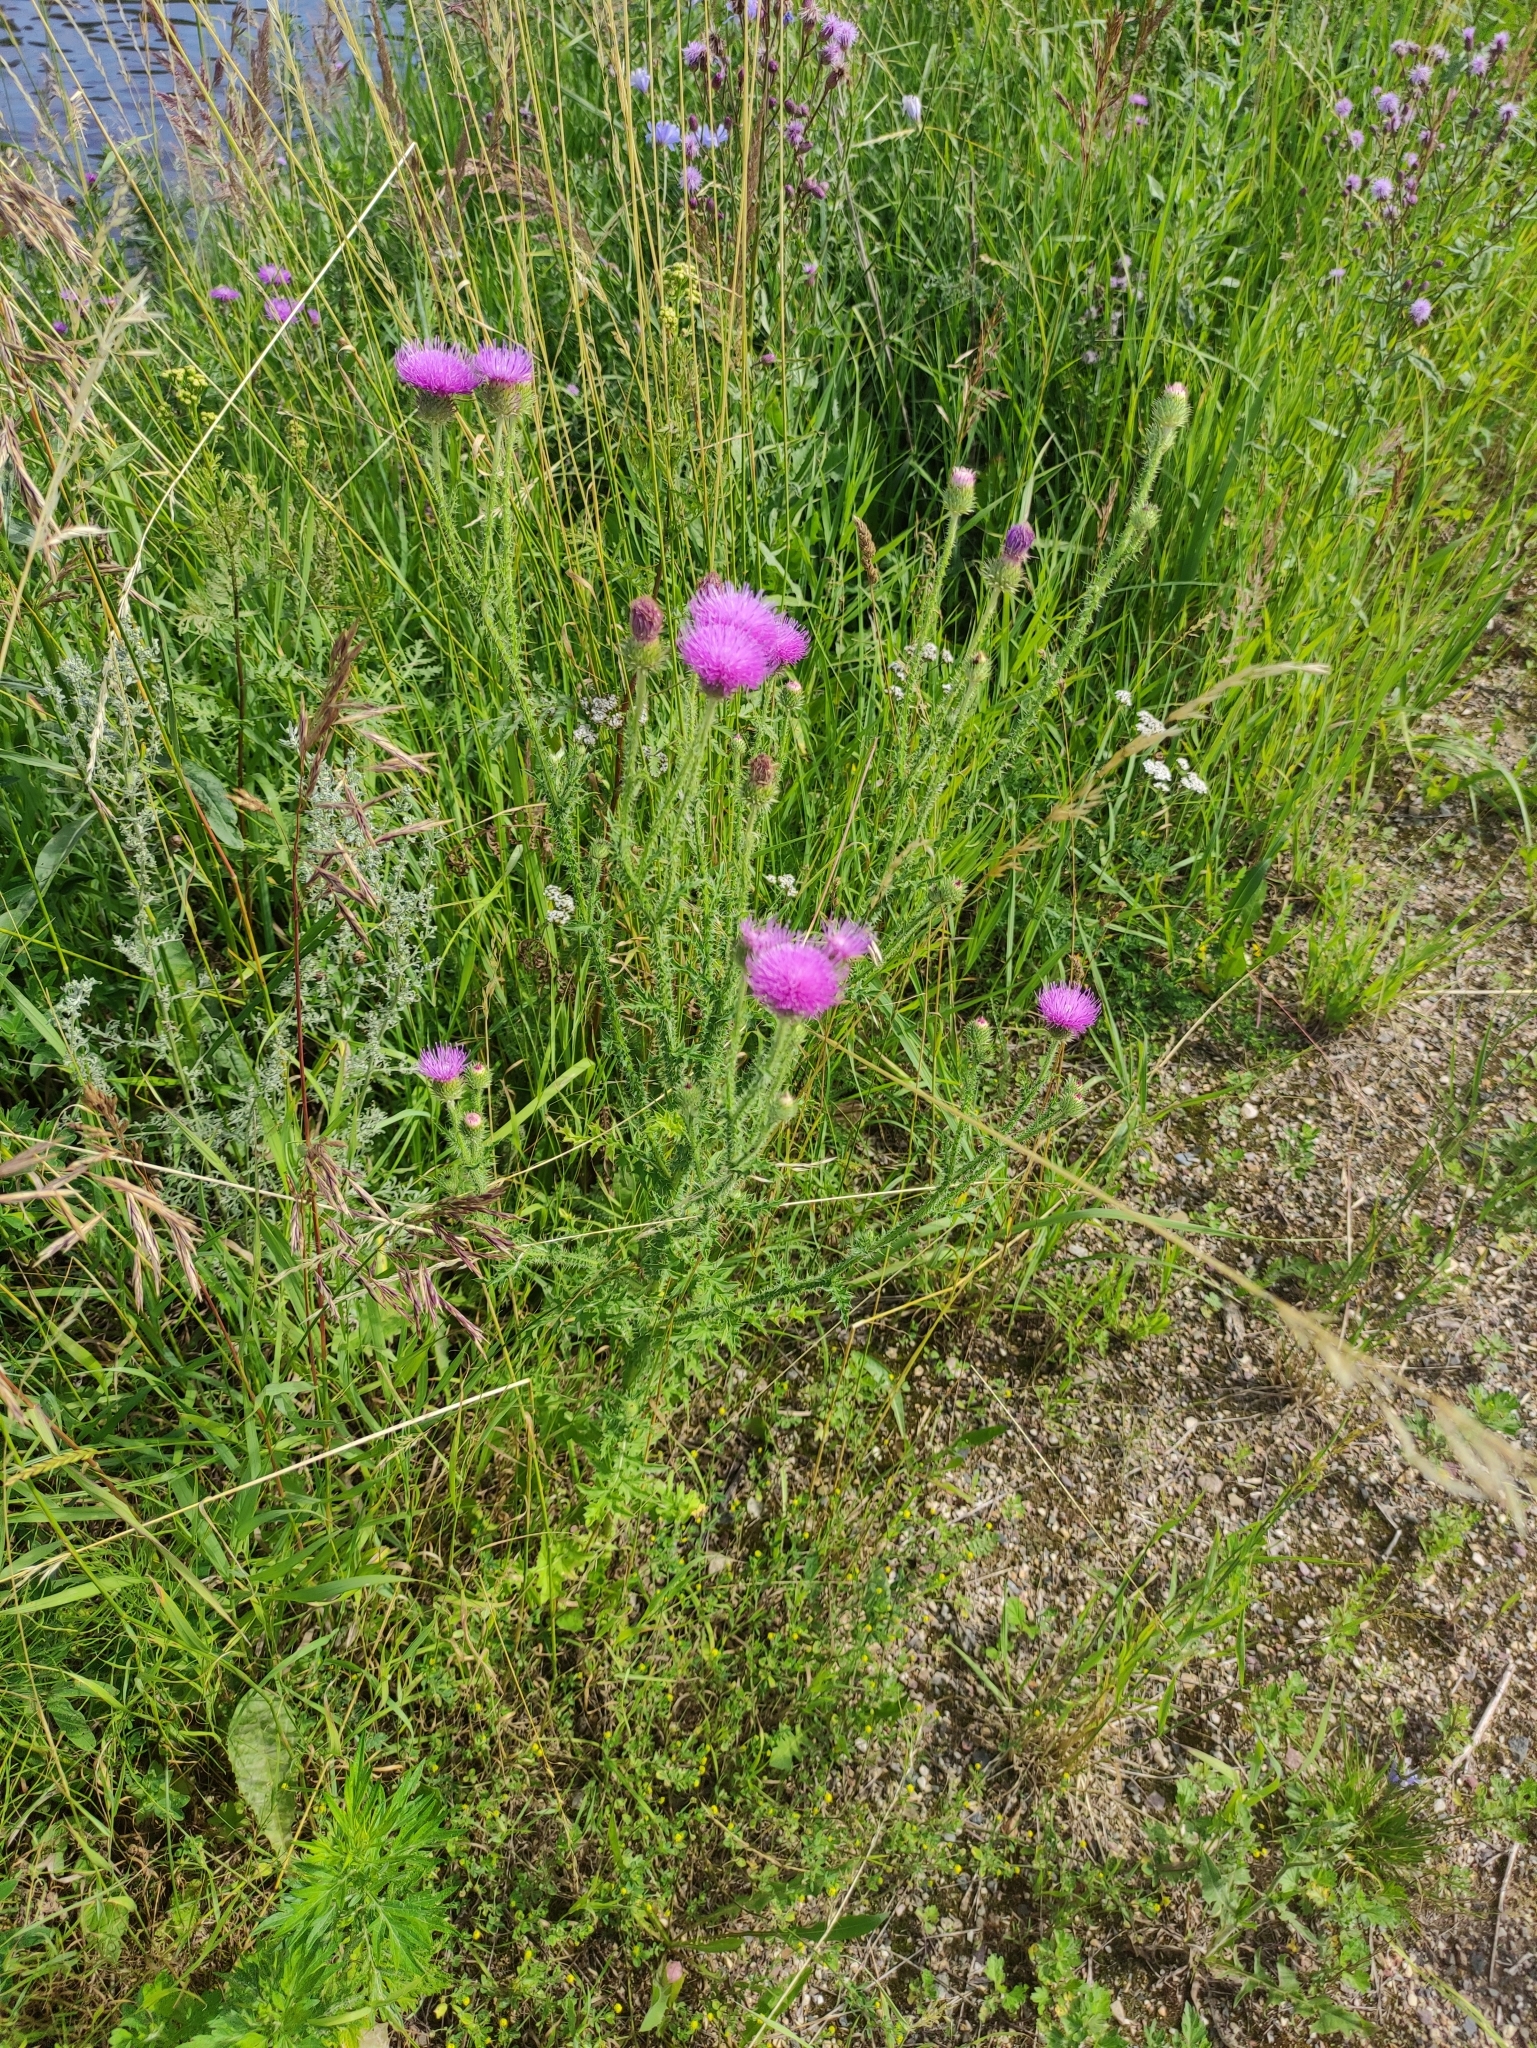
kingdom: Plantae
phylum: Tracheophyta
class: Magnoliopsida
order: Asterales
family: Asteraceae
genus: Carduus
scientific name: Carduus acanthoides
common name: Plumeless thistle
